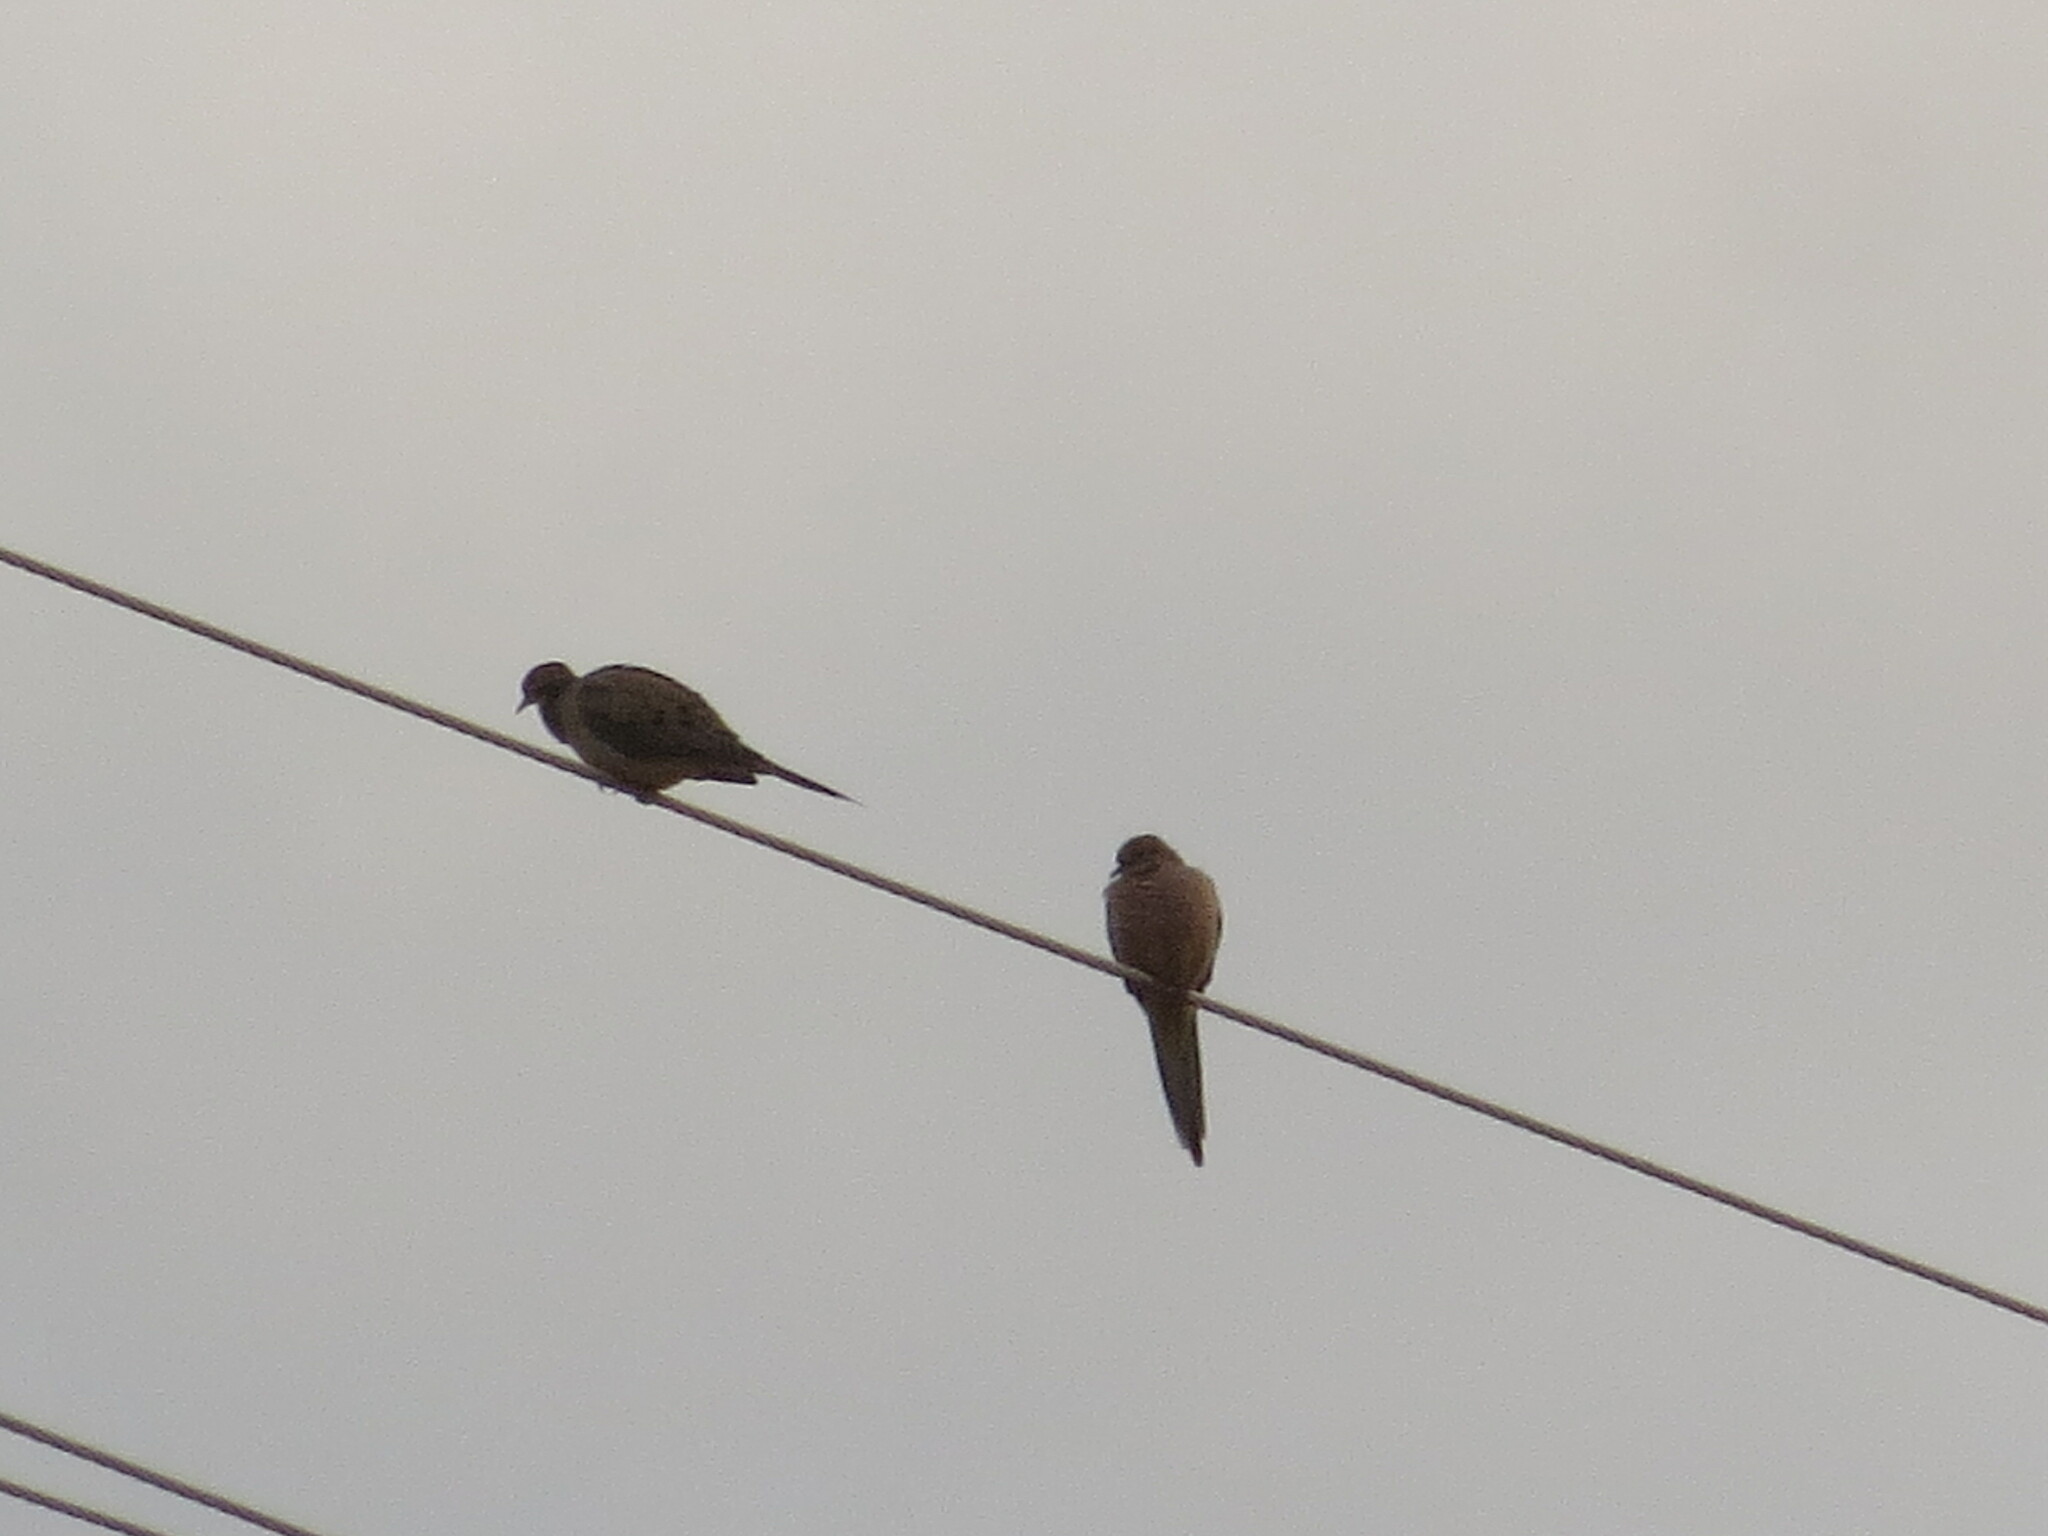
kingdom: Animalia
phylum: Chordata
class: Aves
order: Columbiformes
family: Columbidae
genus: Zenaida
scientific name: Zenaida macroura
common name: Mourning dove
